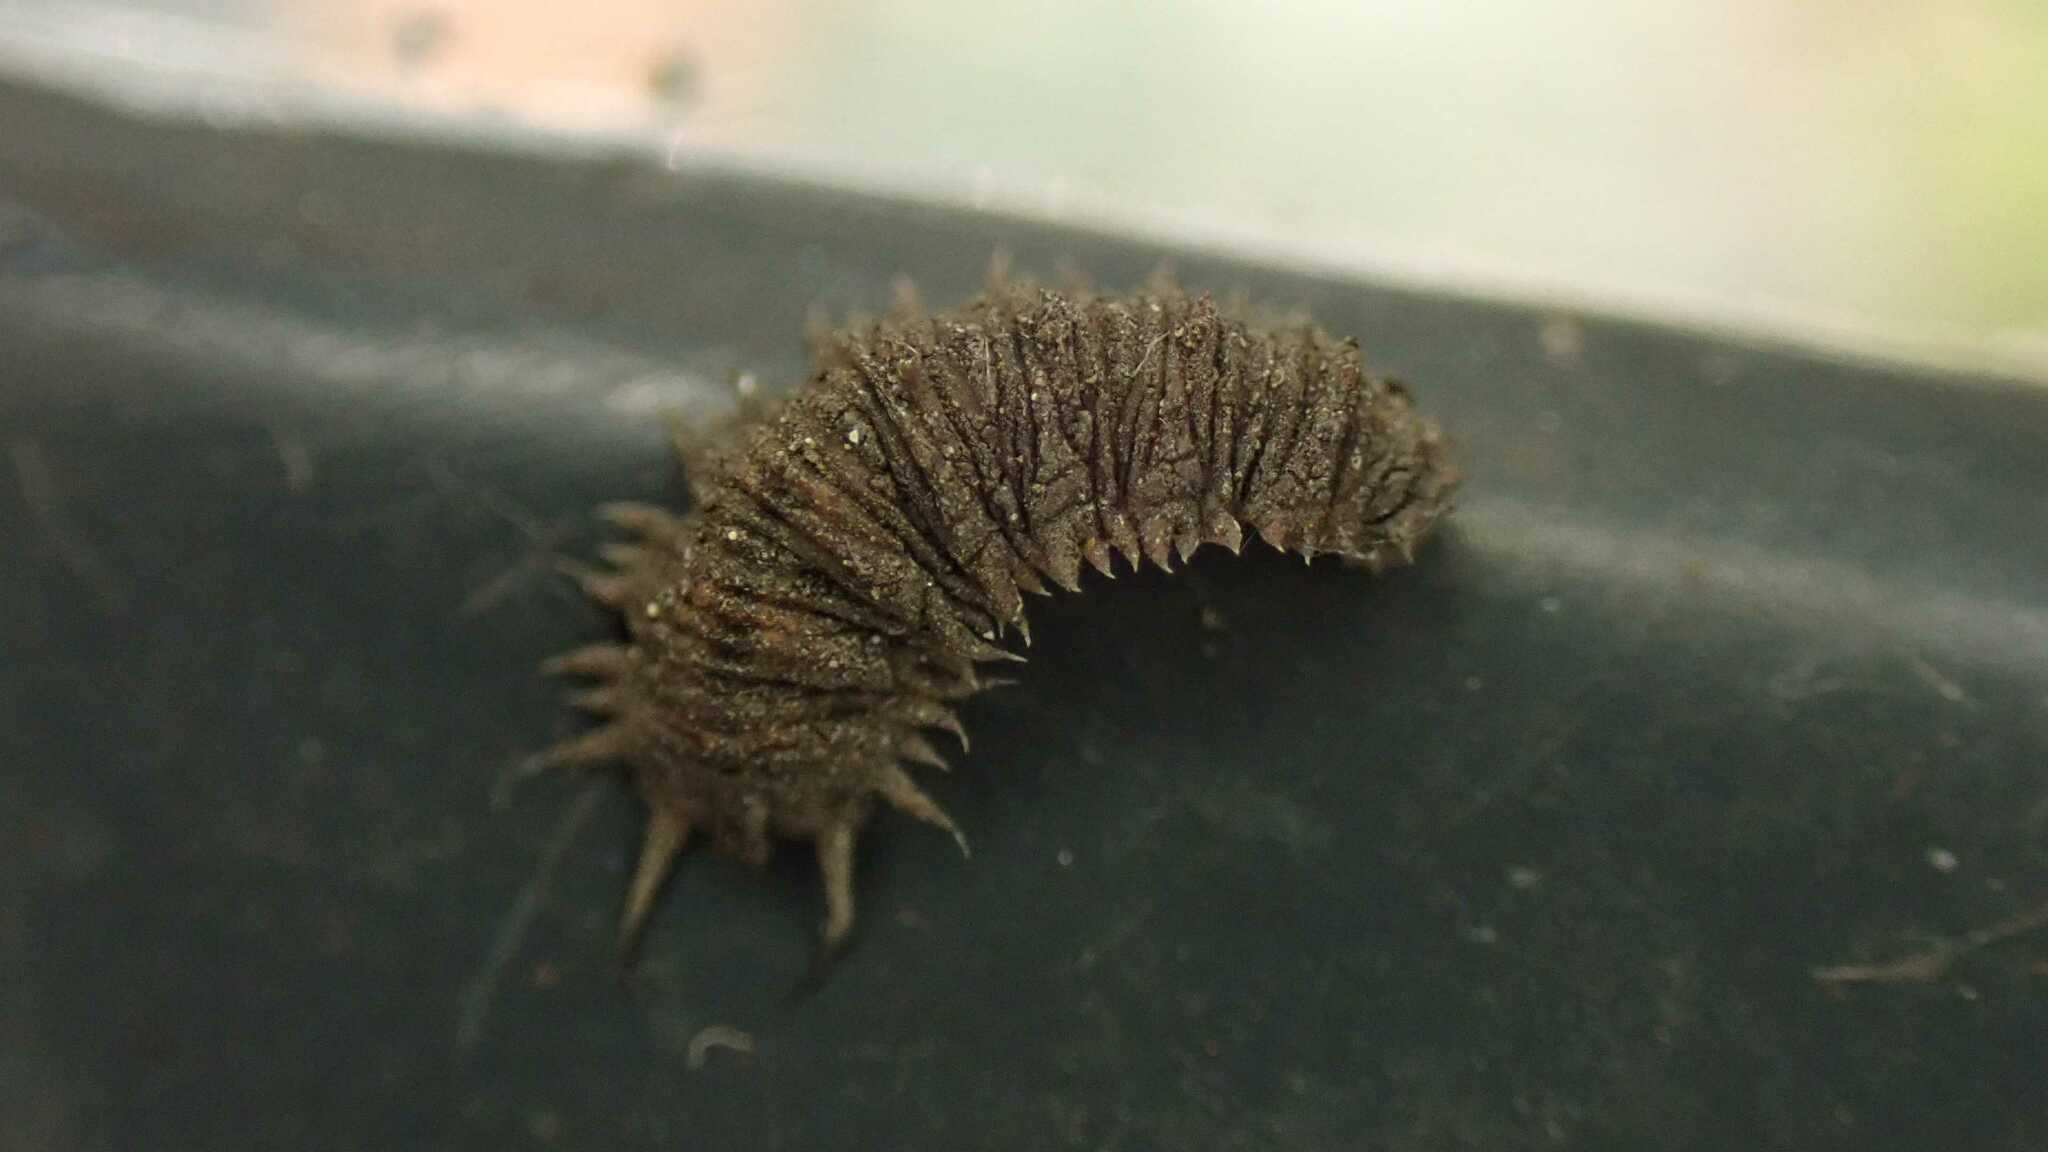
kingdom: Animalia
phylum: Arthropoda
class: Insecta
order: Diptera
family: Syrphidae
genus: Dasysyrphus
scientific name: Dasysyrphus
